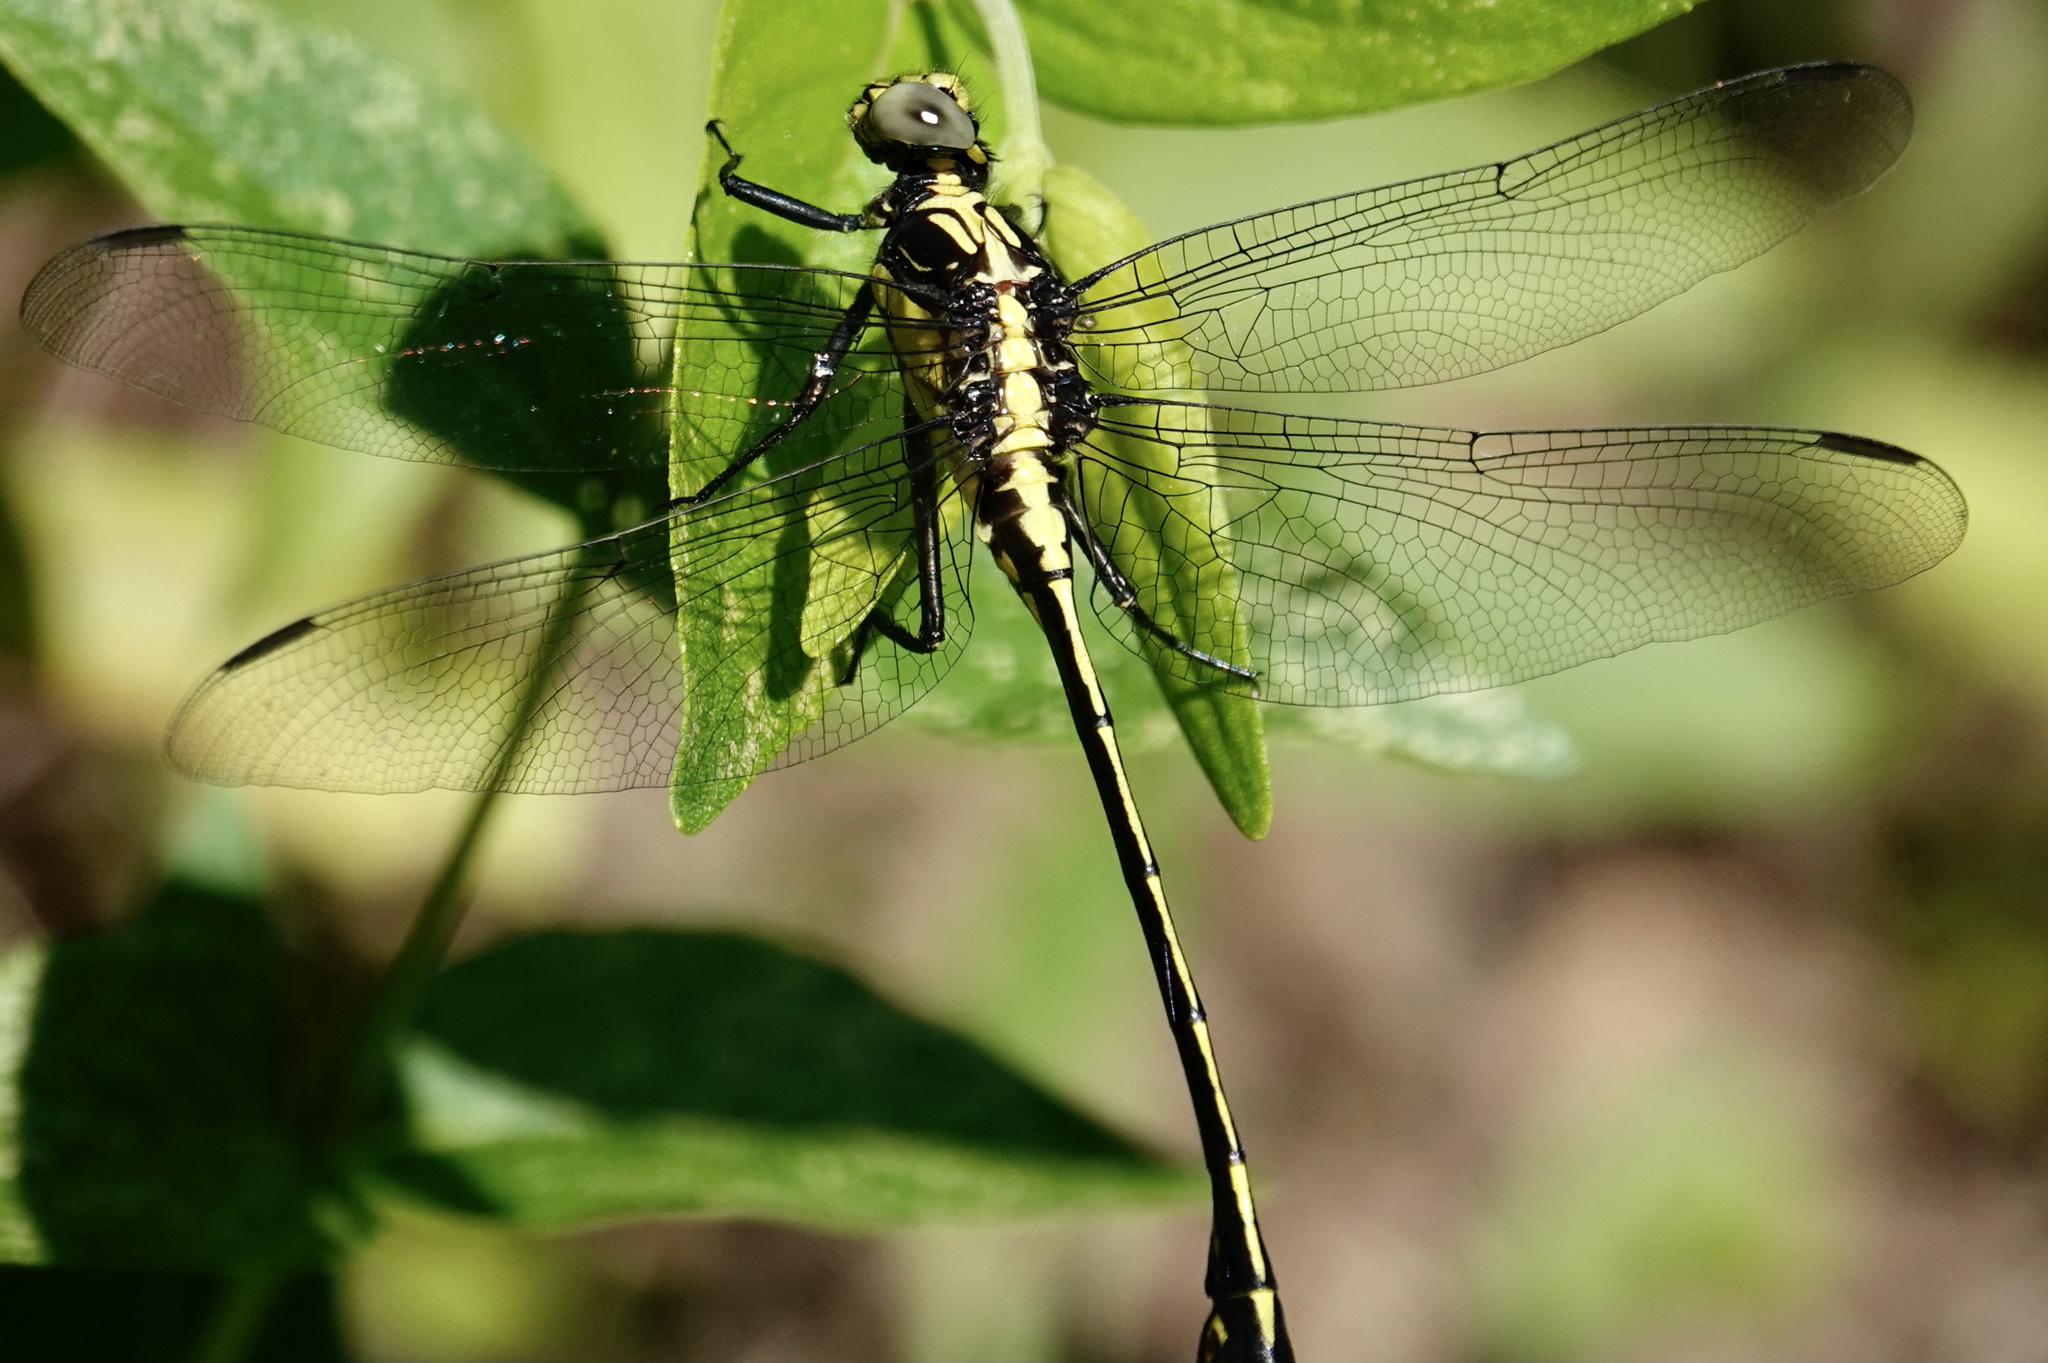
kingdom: Animalia
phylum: Arthropoda
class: Insecta
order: Odonata
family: Gomphidae
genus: Dromogomphus
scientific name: Dromogomphus spinosus
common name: Black-shouldered spinyleg
